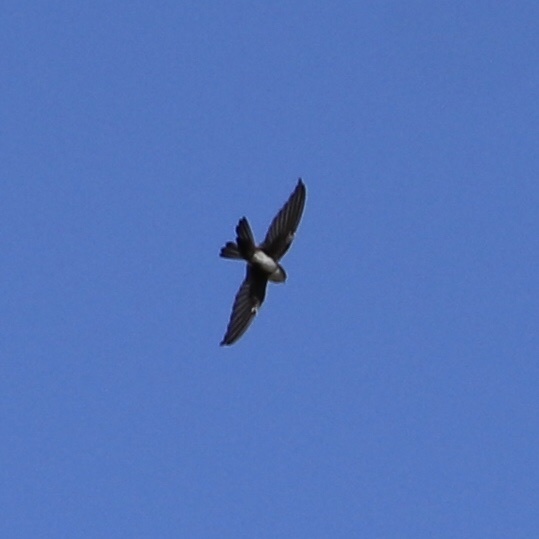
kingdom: Animalia
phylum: Chordata
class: Aves
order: Apodiformes
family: Apodidae
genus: Tachornis
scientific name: Tachornis phoenicobia
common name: Antillean palm swift
